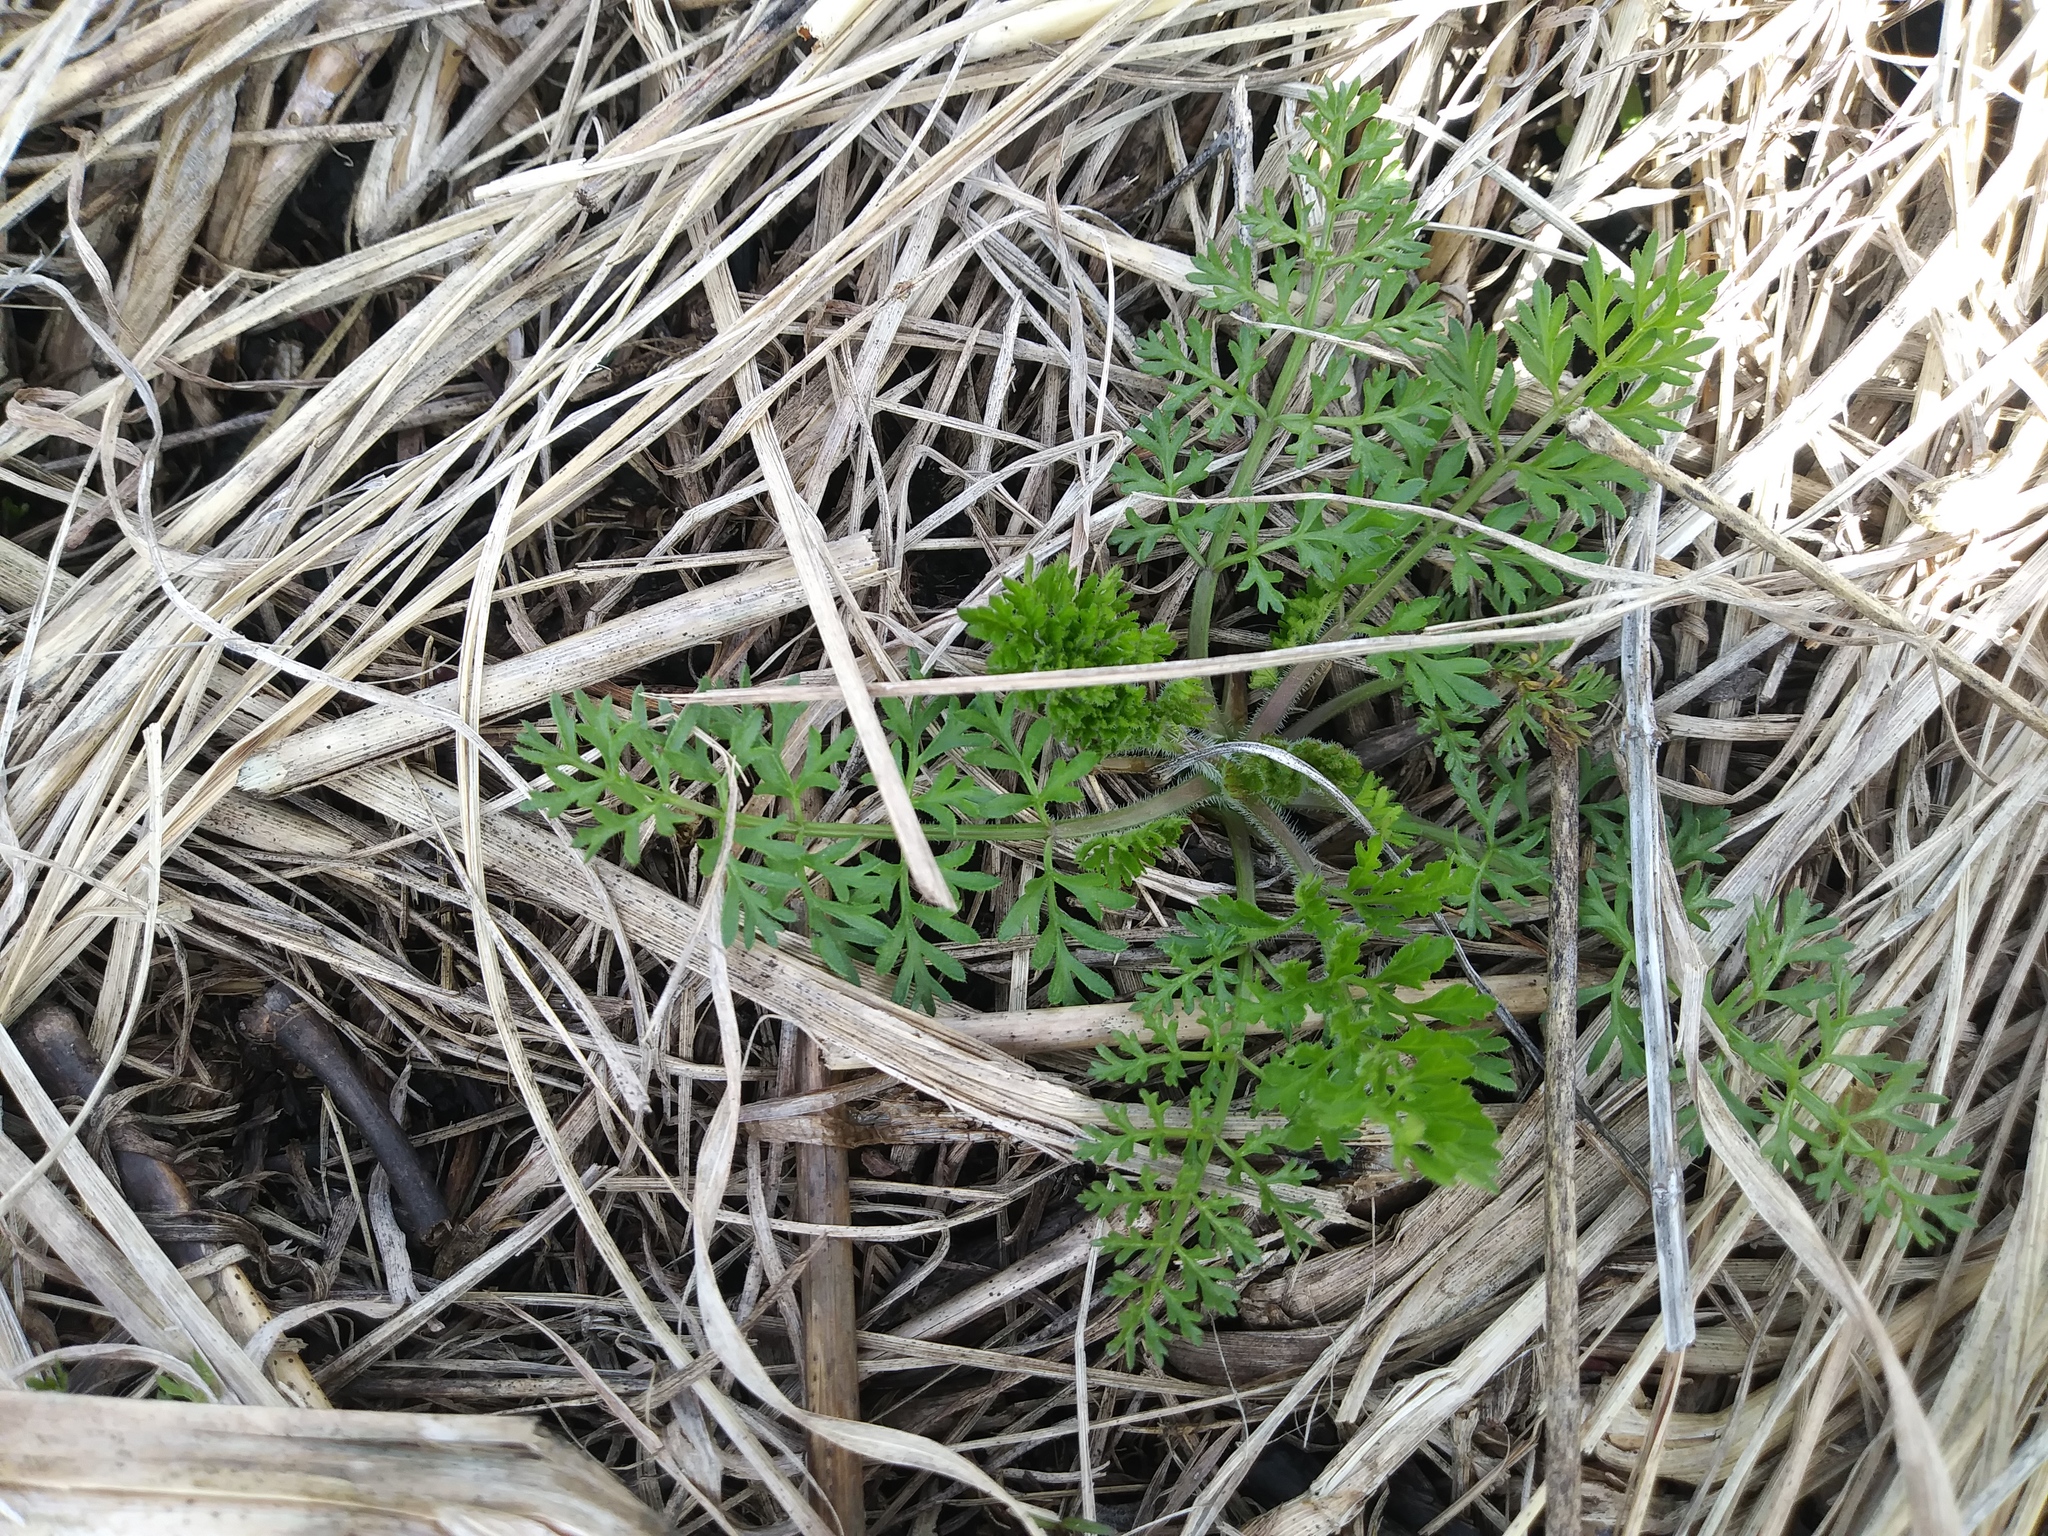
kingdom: Plantae
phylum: Tracheophyta
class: Magnoliopsida
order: Apiales
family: Apiaceae
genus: Daucus
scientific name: Daucus carota
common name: Wild carrot
